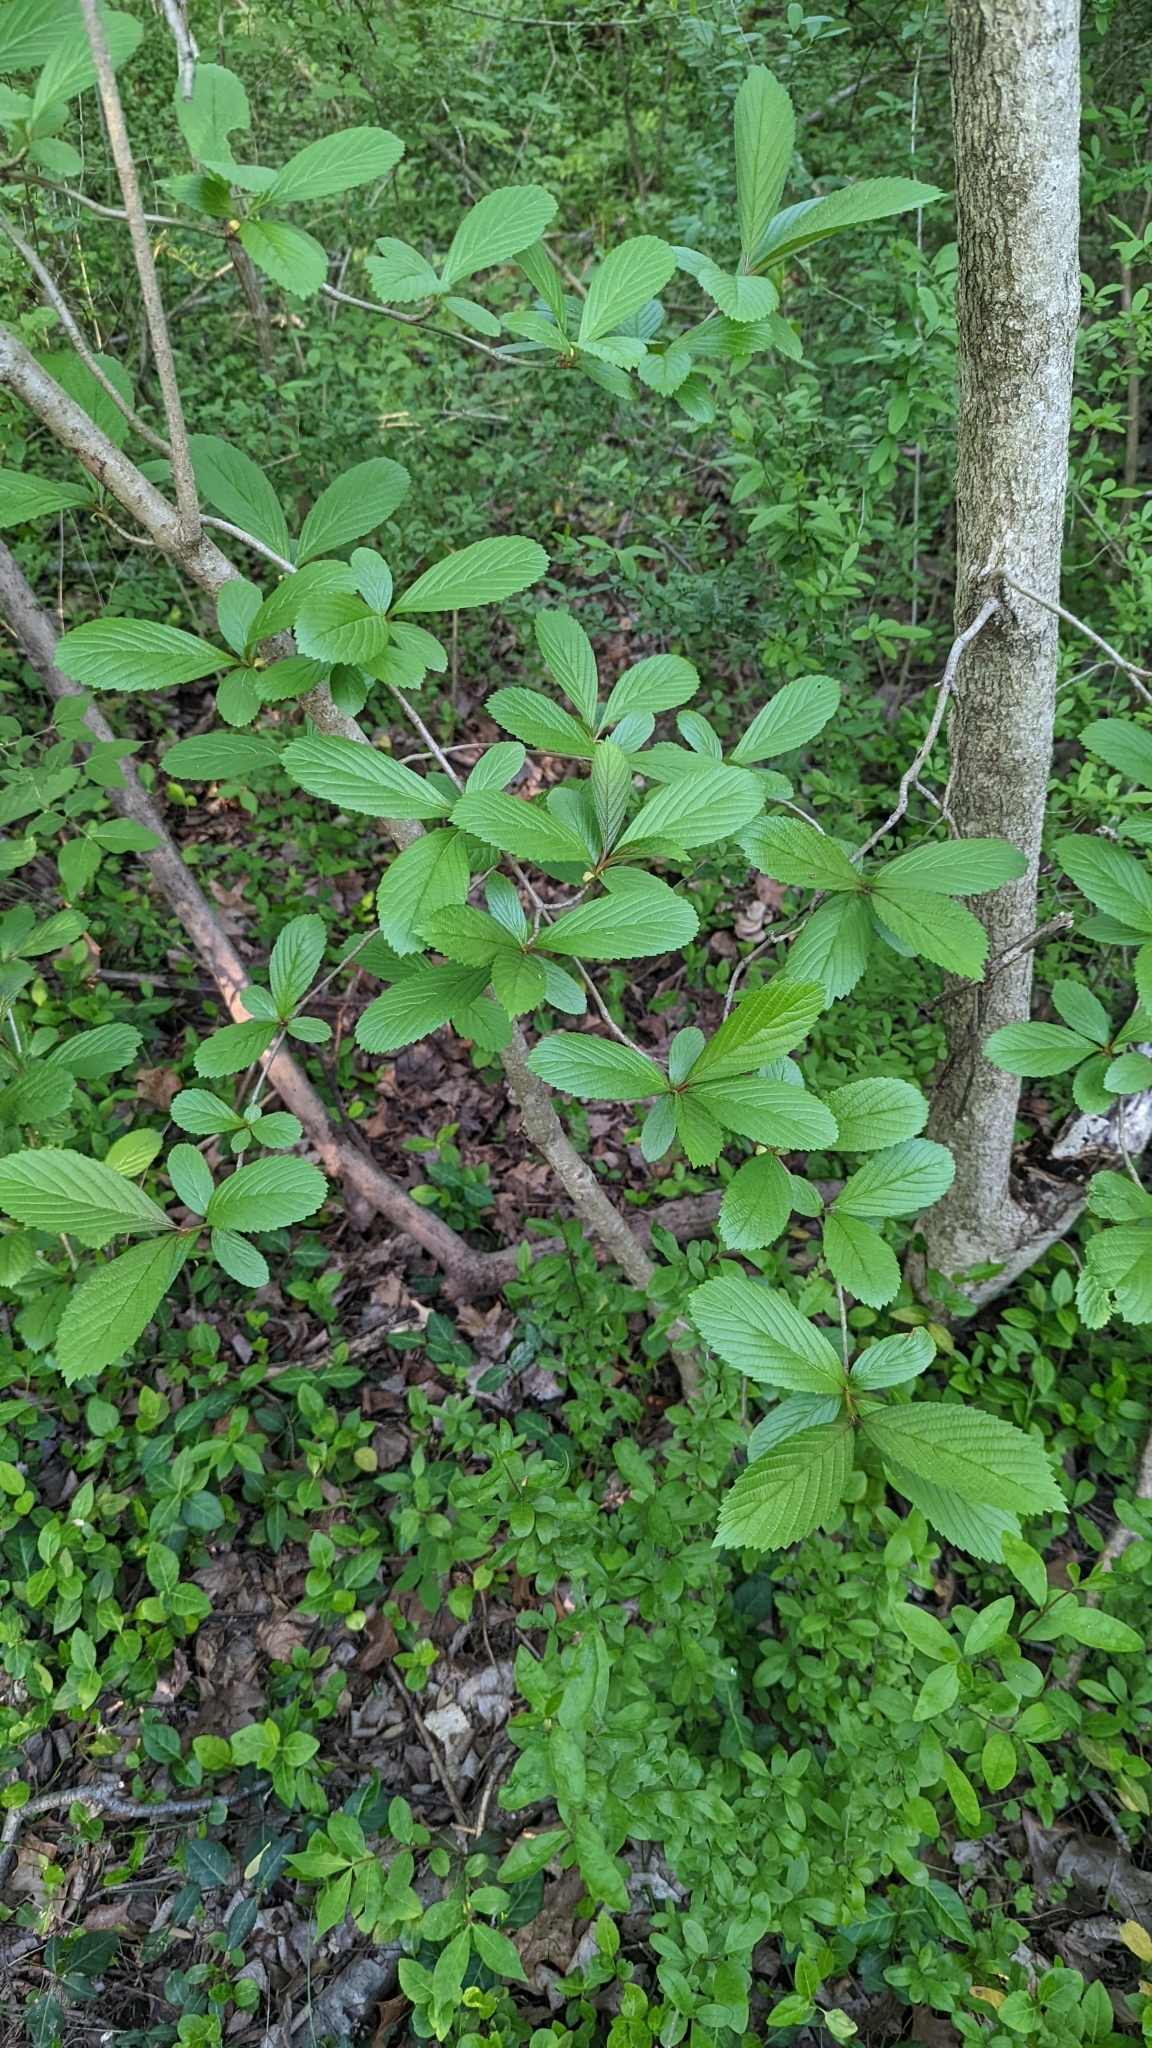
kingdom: Plantae
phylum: Tracheophyta
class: Magnoliopsida
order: Dipsacales
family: Viburnaceae
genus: Viburnum
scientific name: Viburnum sieboldii
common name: Siebold's arrowwood
